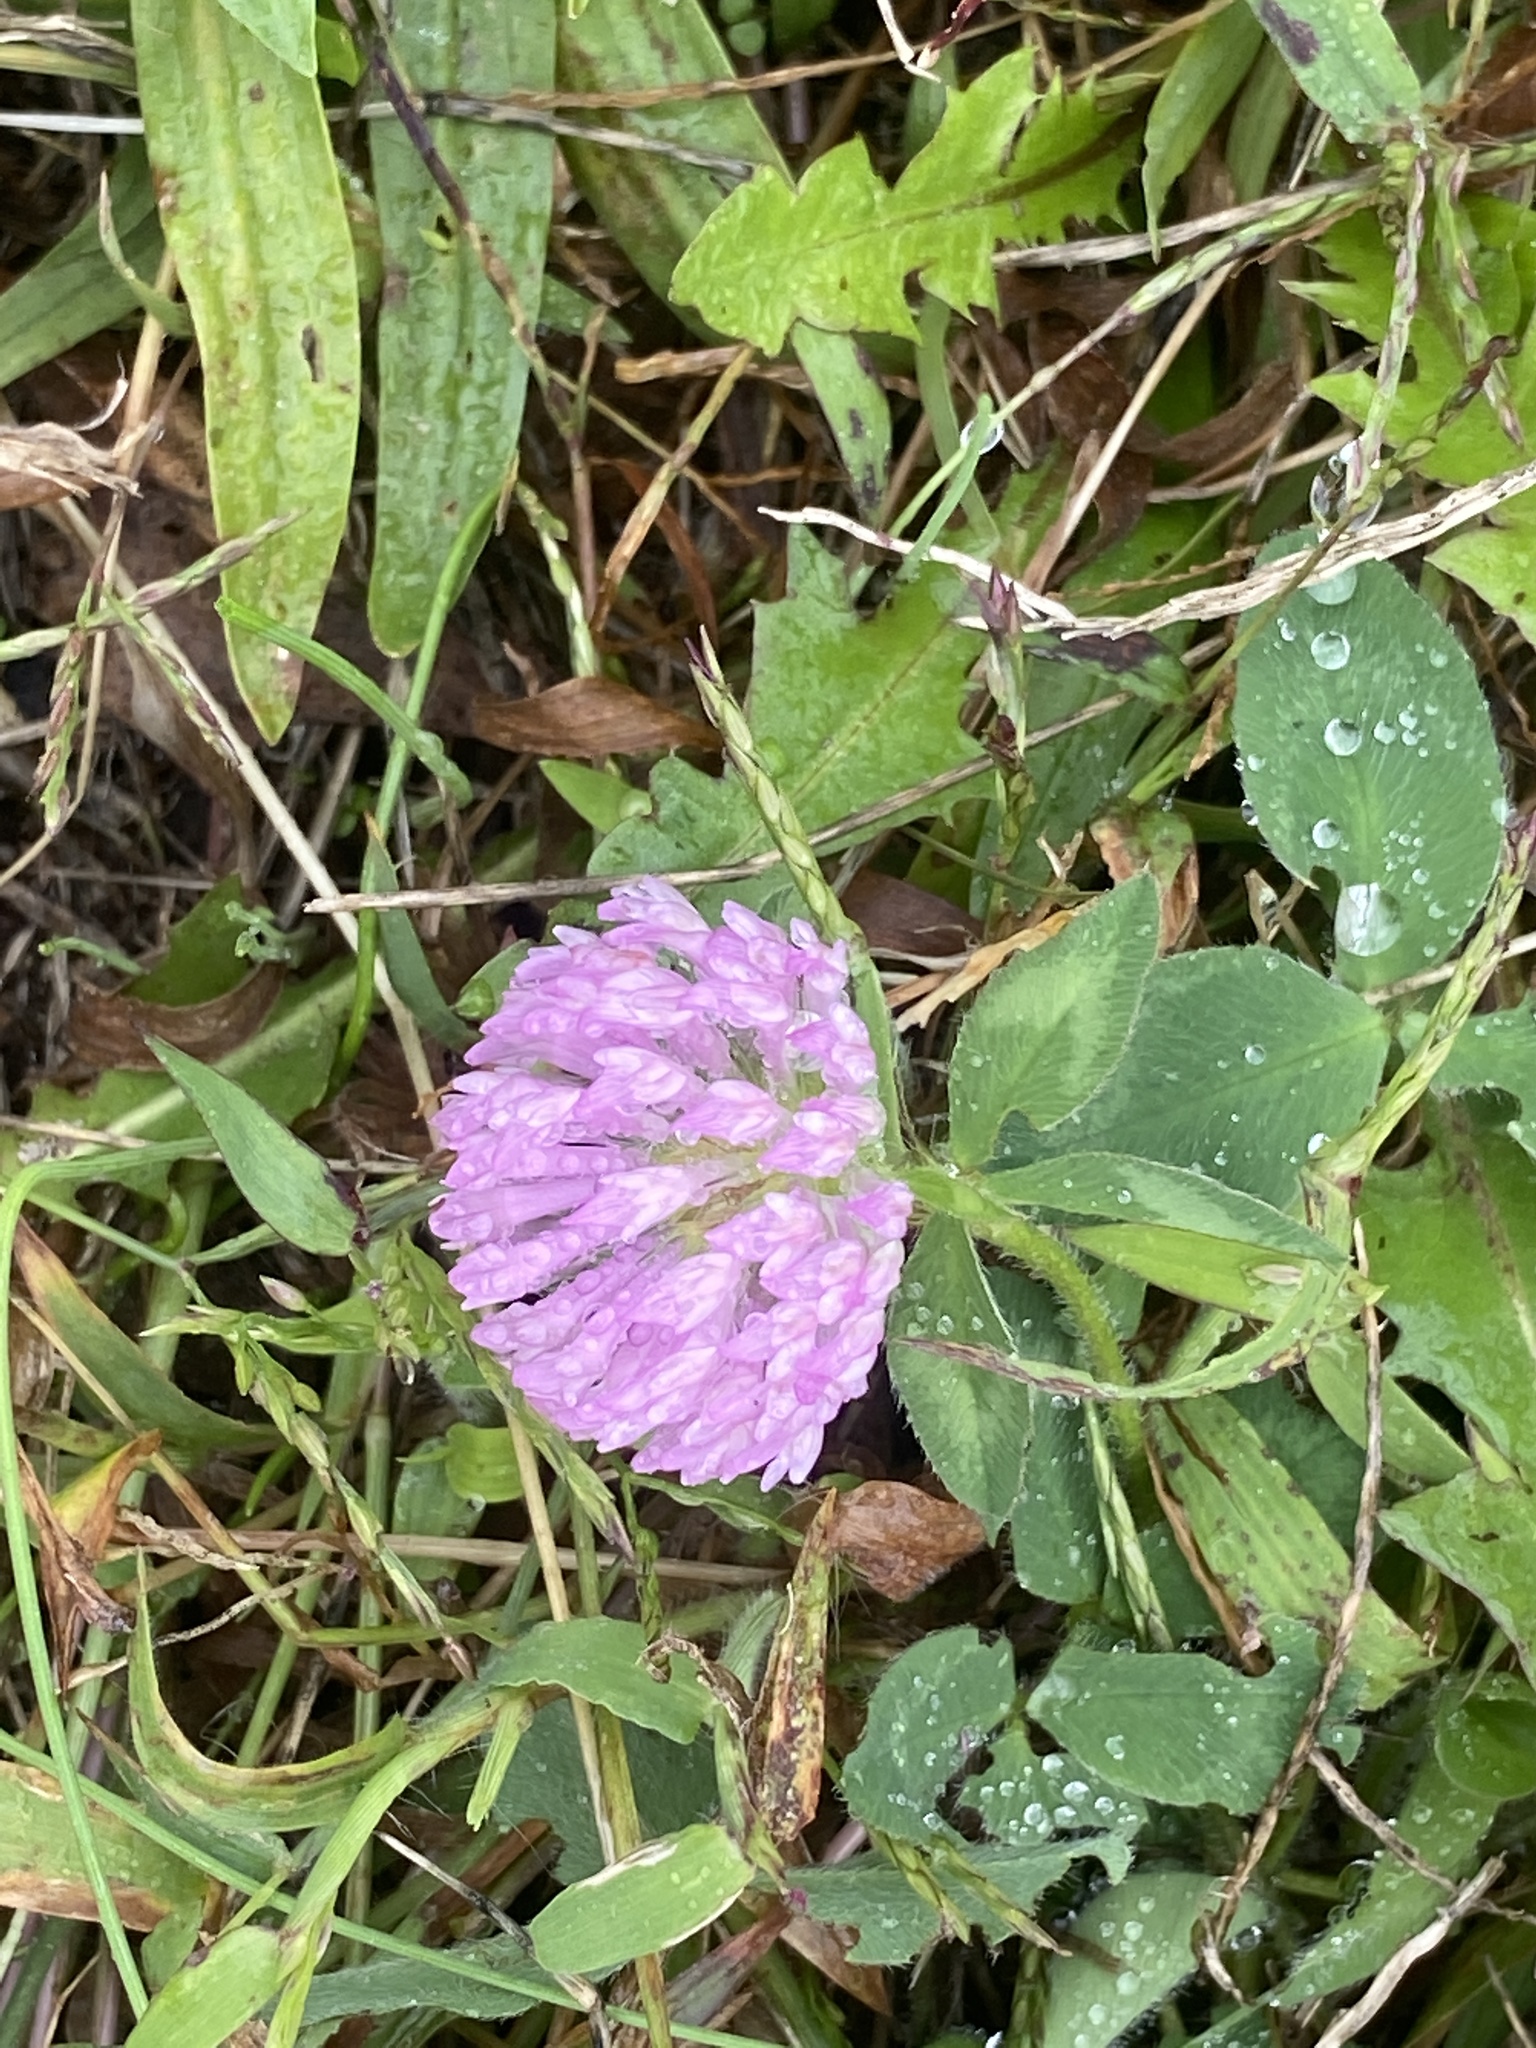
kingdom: Plantae
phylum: Tracheophyta
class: Magnoliopsida
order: Fabales
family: Fabaceae
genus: Trifolium
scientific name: Trifolium pratense
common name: Red clover
